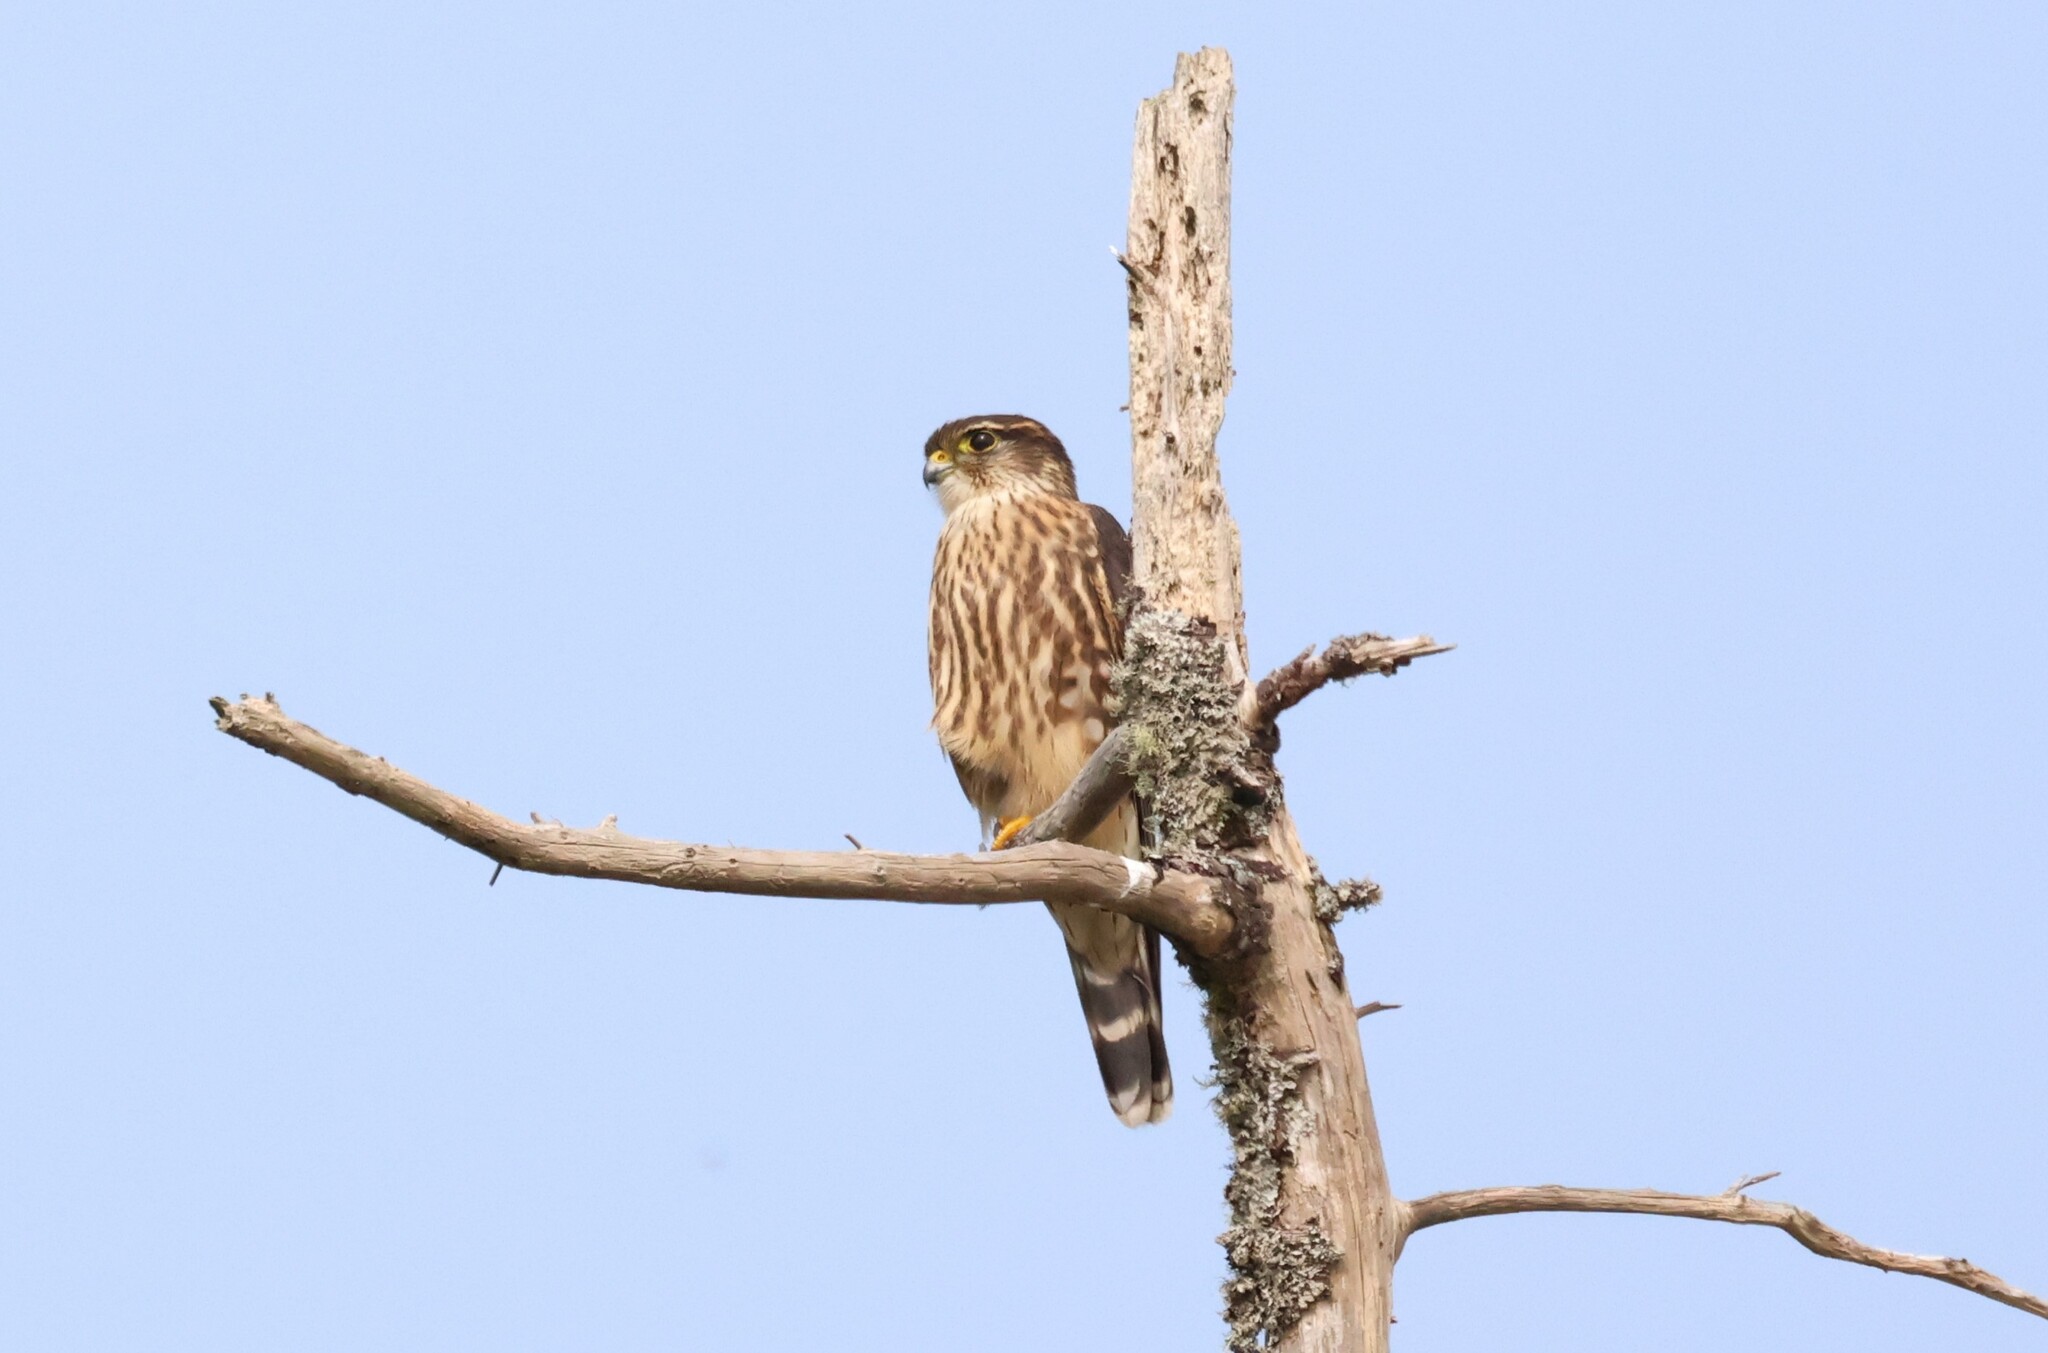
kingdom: Animalia
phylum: Chordata
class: Aves
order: Falconiformes
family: Falconidae
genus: Falco
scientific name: Falco columbarius
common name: Merlin
